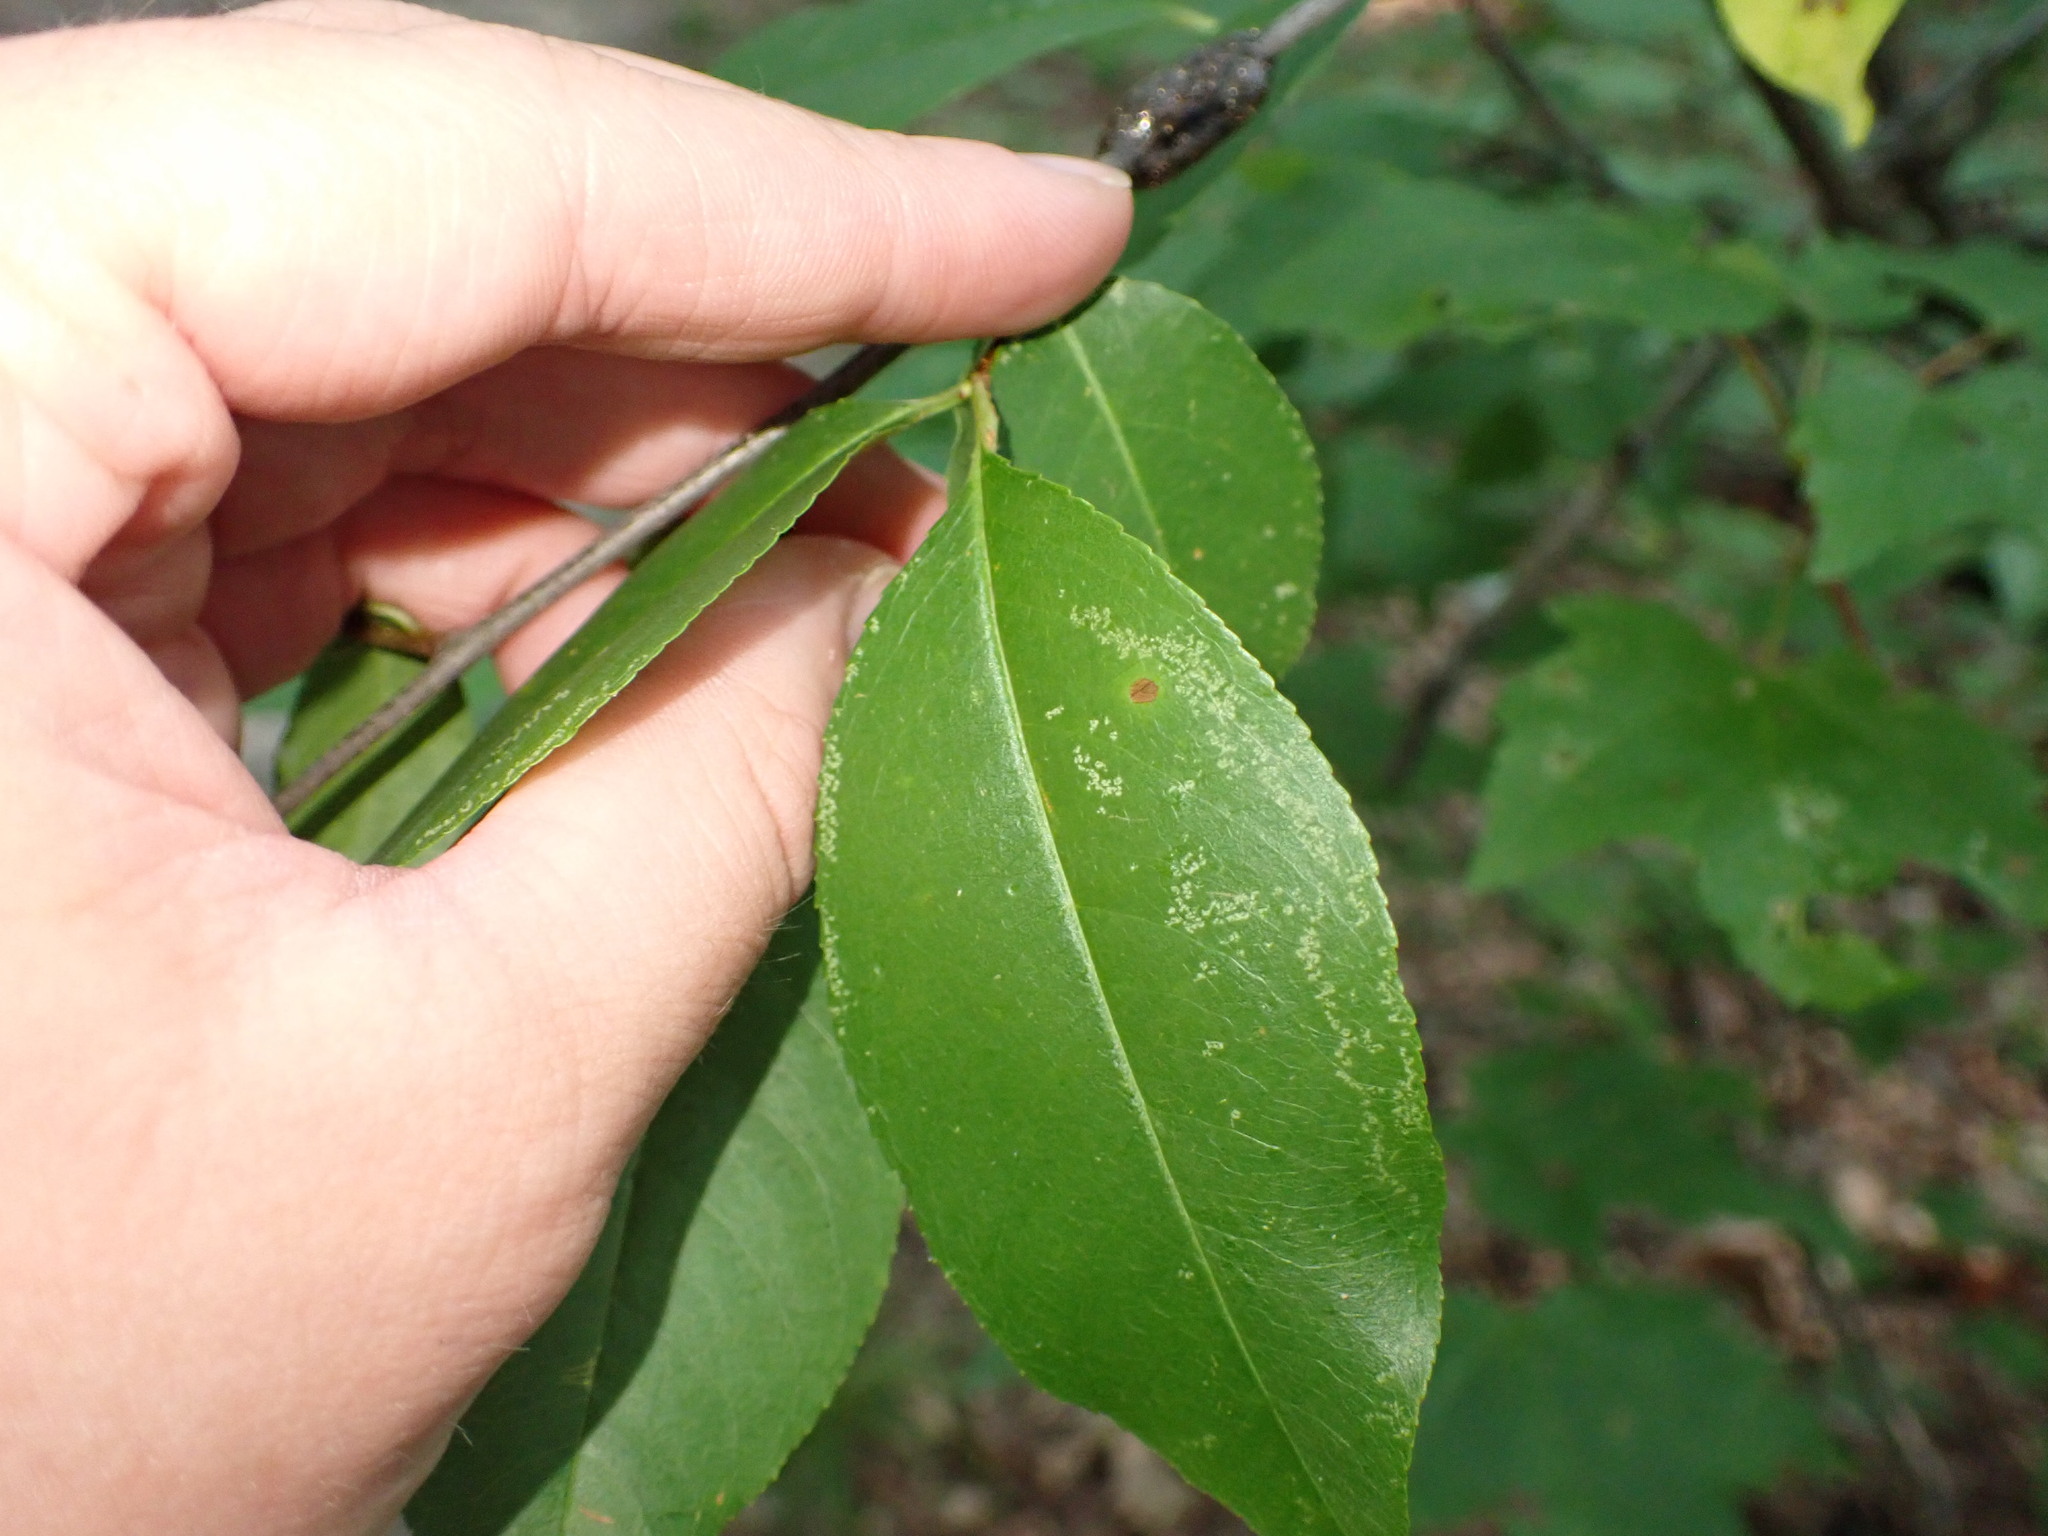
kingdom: Plantae
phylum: Tracheophyta
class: Magnoliopsida
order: Rosales
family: Rosaceae
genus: Prunus
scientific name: Prunus serotina
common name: Black cherry
